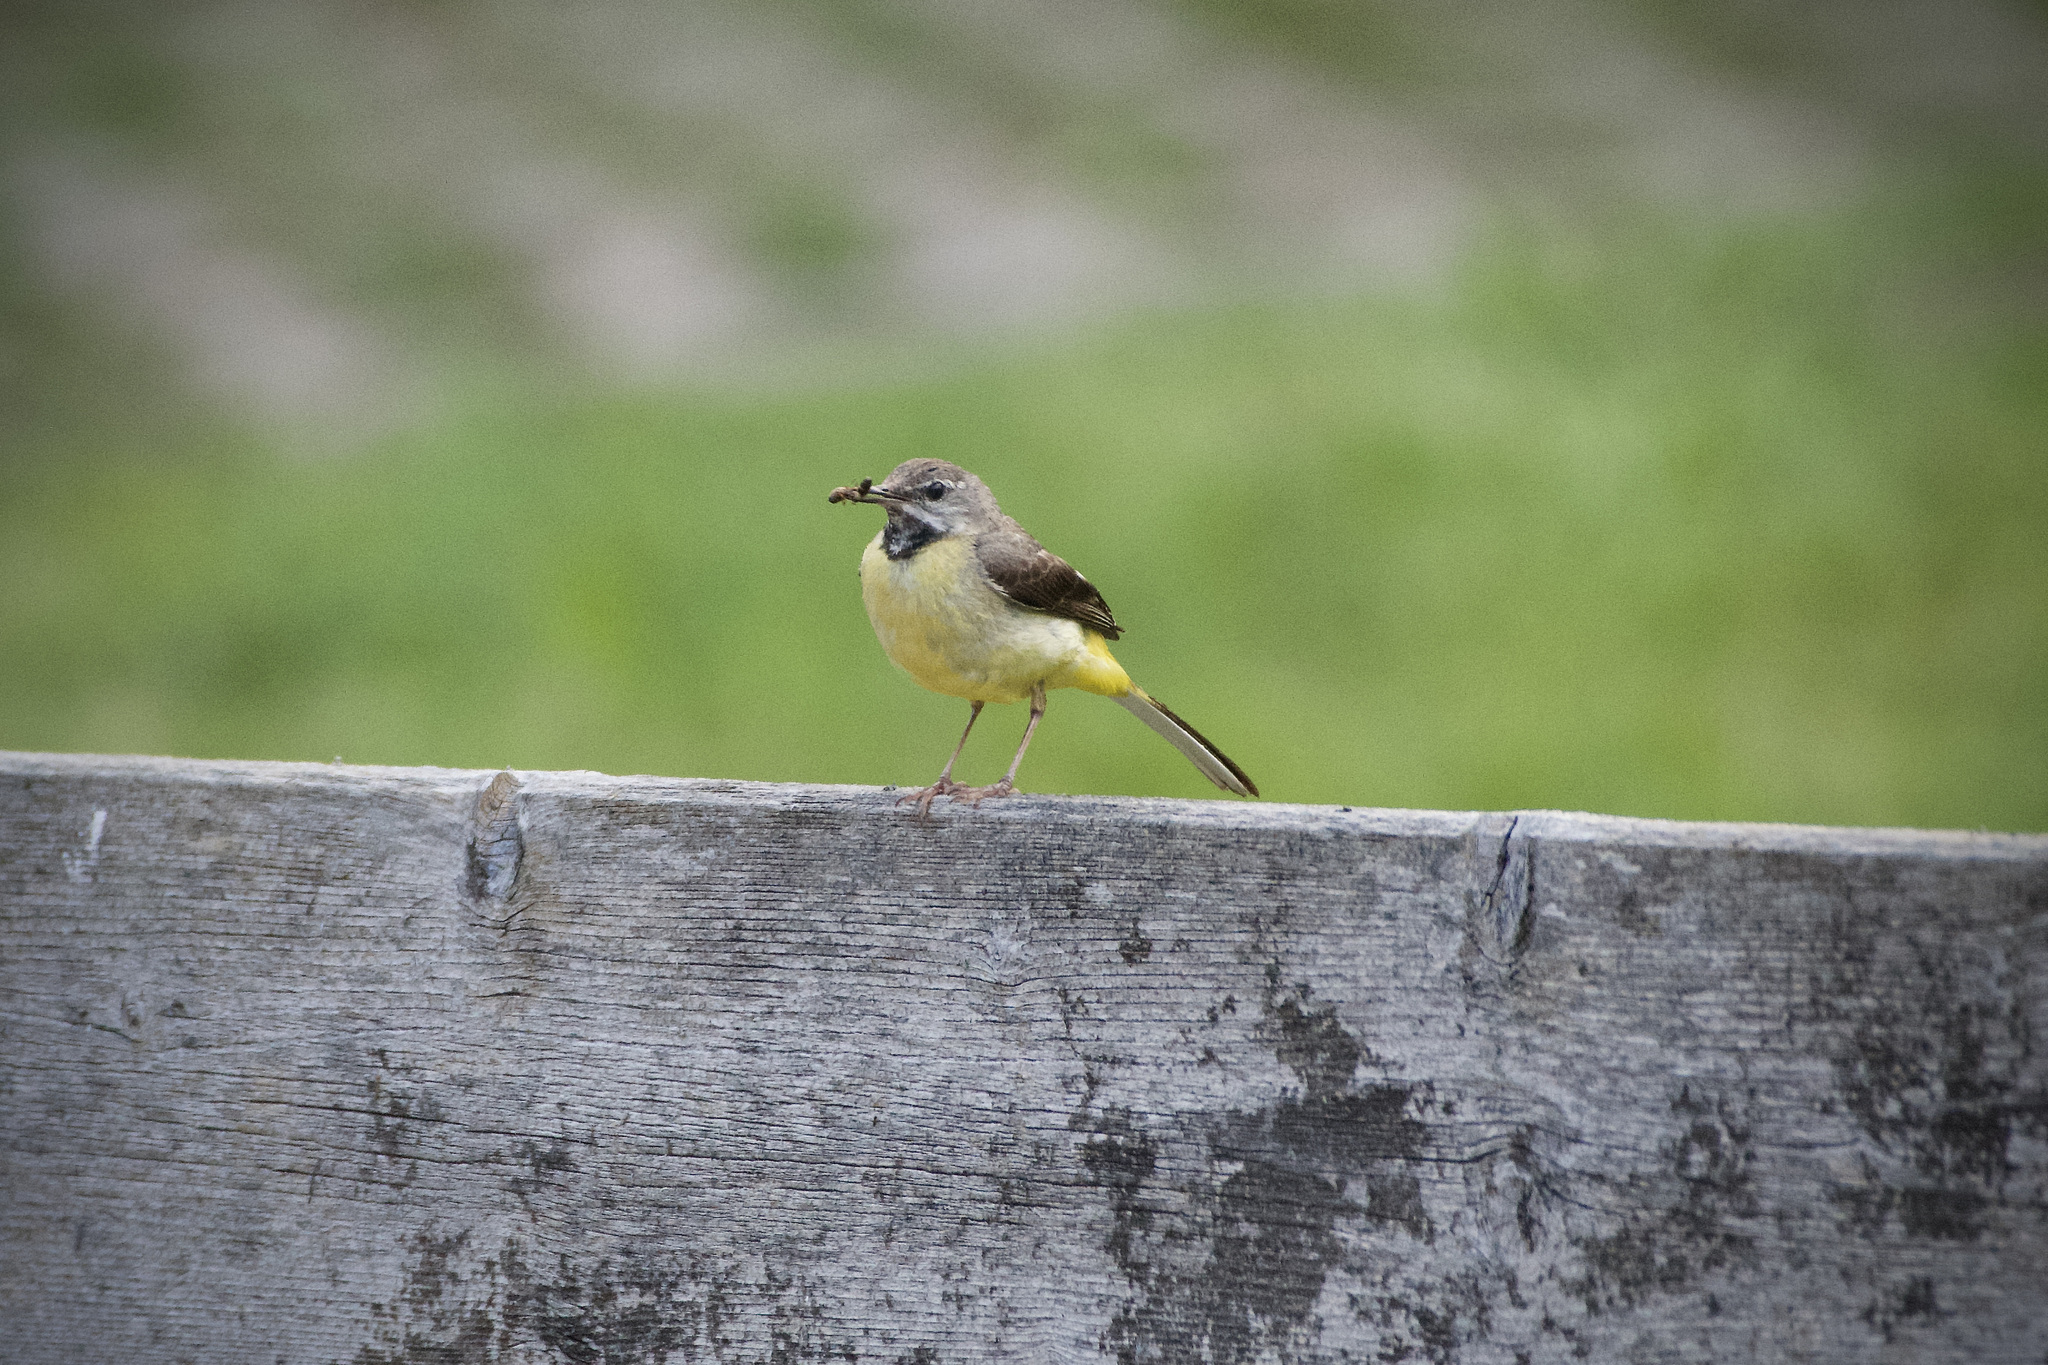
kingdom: Animalia
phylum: Chordata
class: Aves
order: Passeriformes
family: Motacillidae
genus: Motacilla
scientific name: Motacilla cinerea
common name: Grey wagtail
